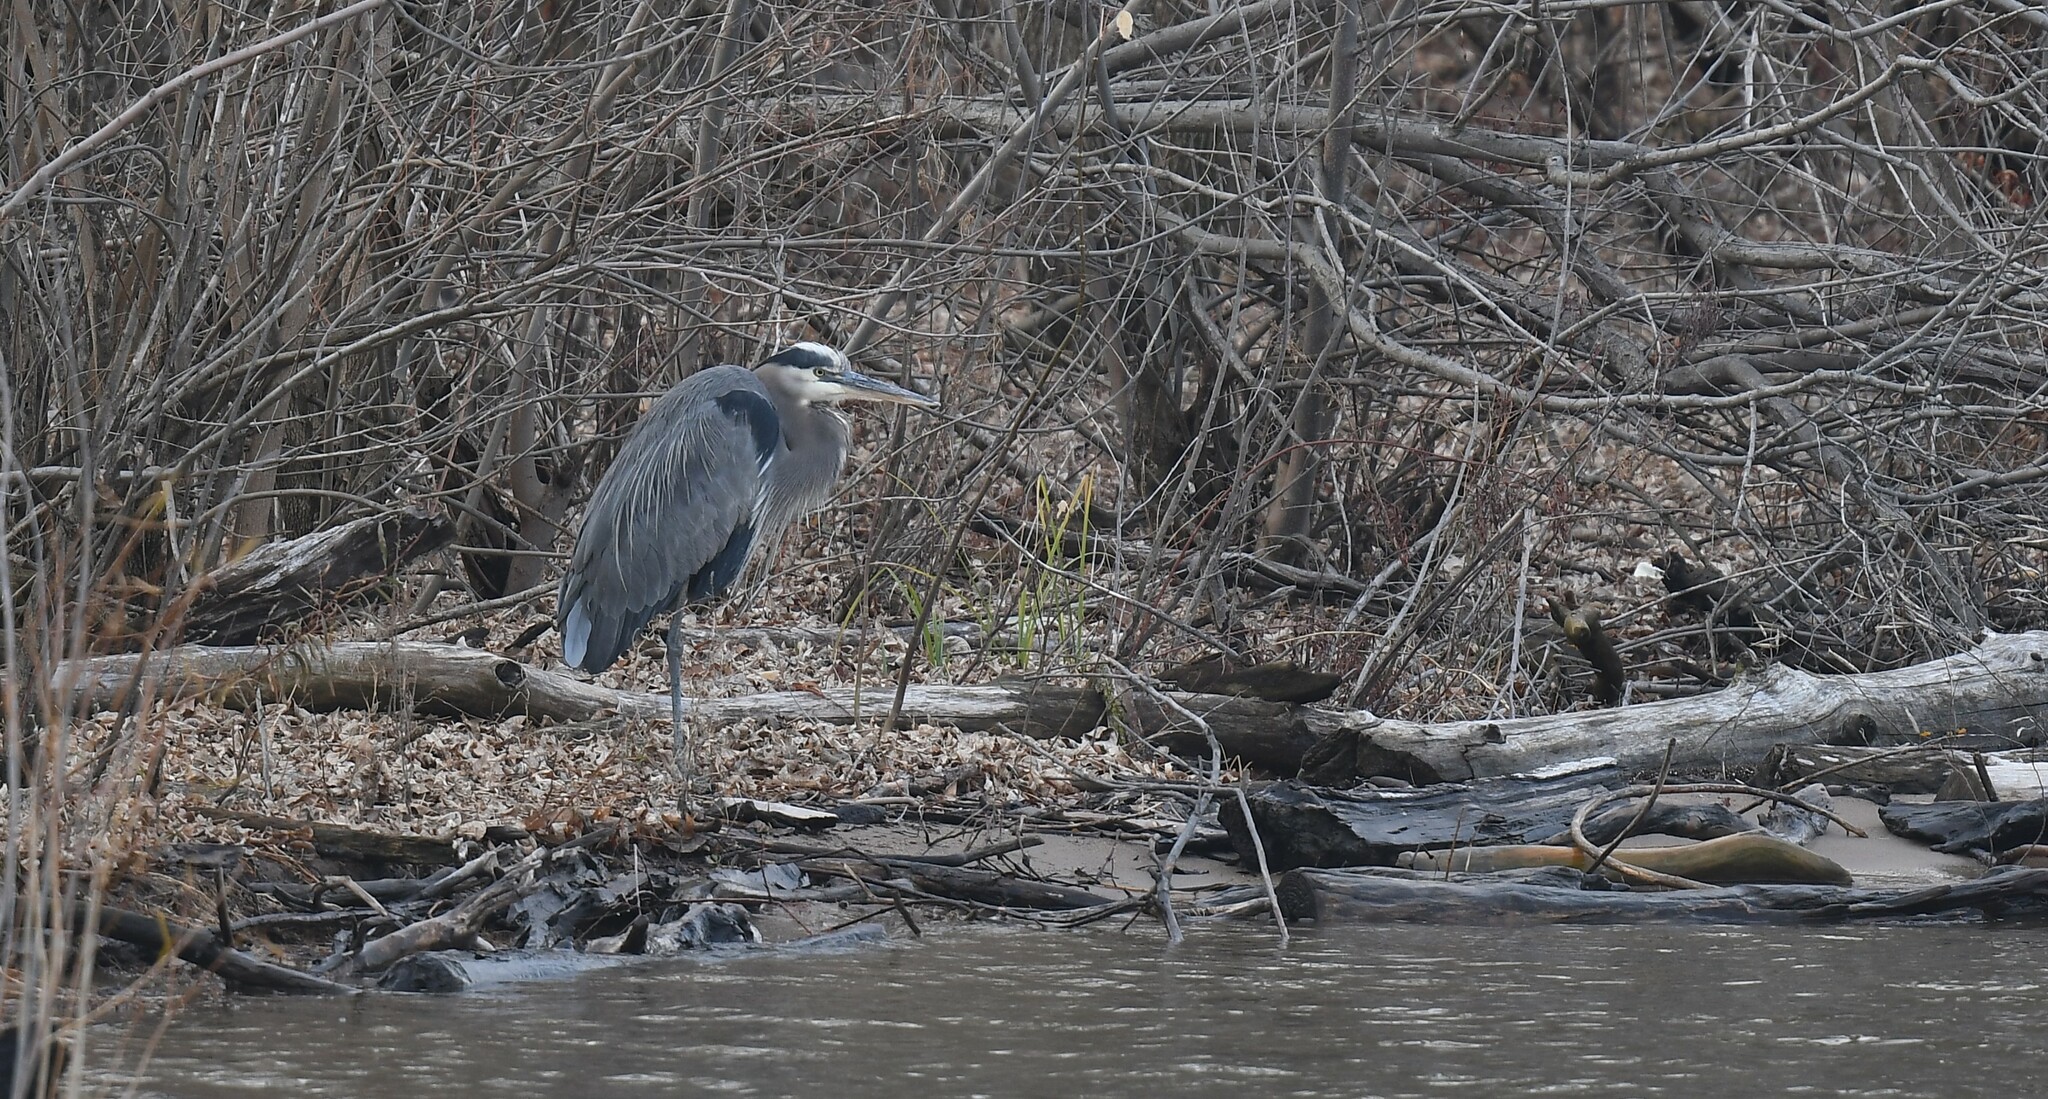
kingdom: Animalia
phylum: Chordata
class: Aves
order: Pelecaniformes
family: Ardeidae
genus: Ardea
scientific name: Ardea herodias
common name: Great blue heron
